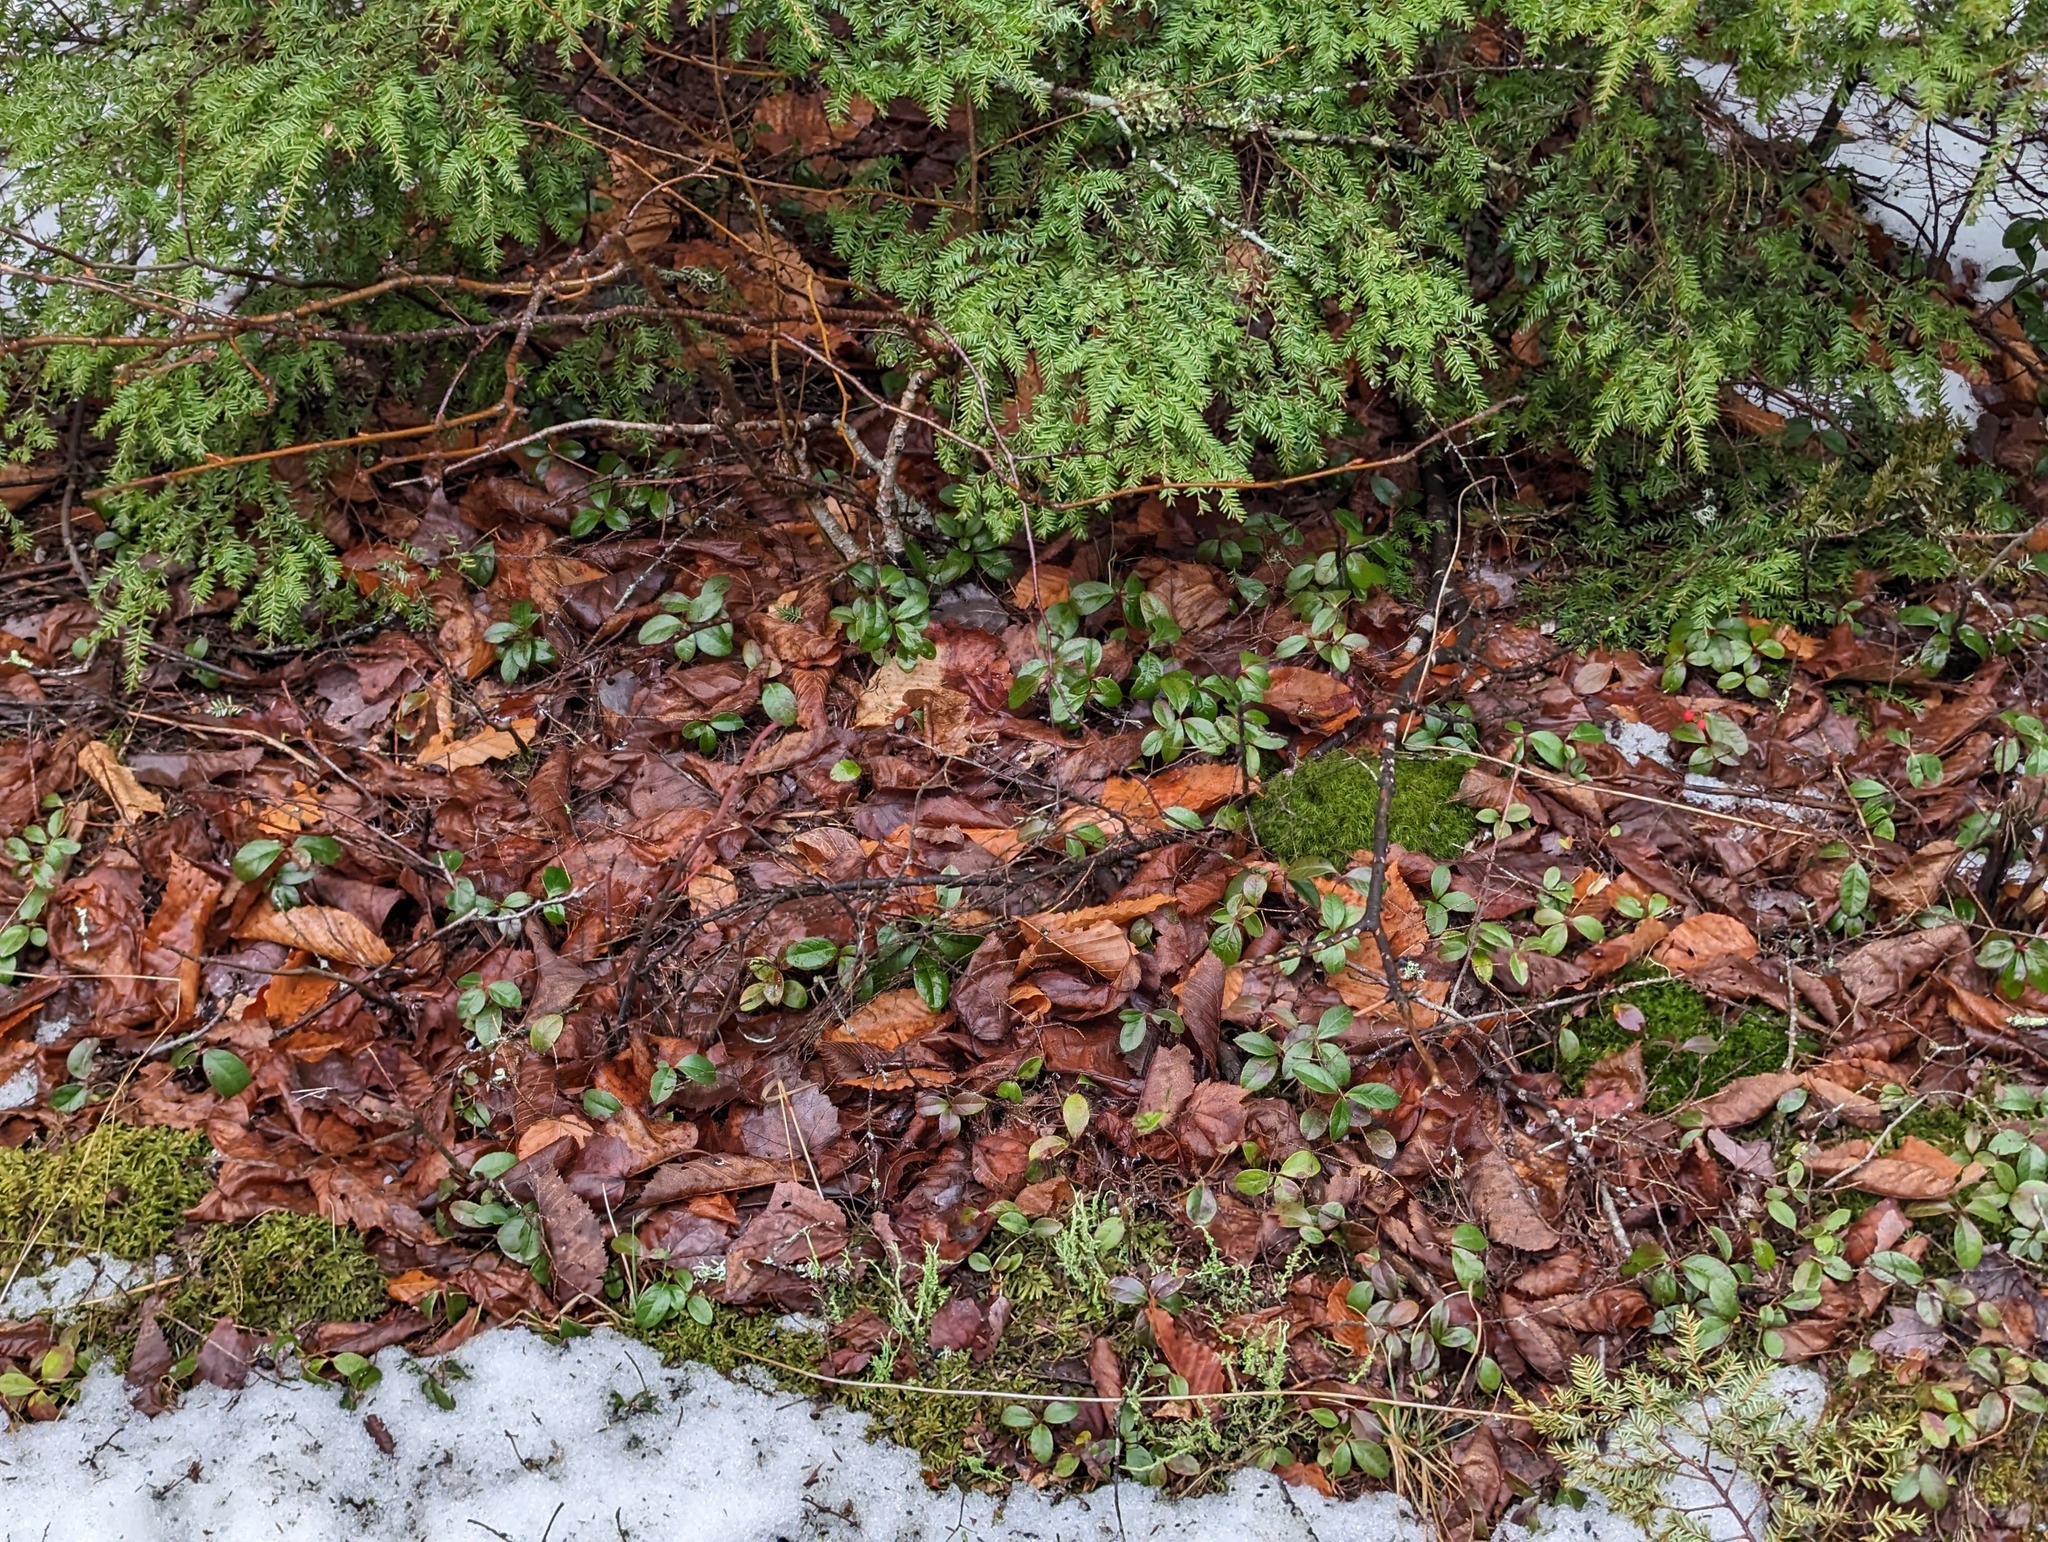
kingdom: Plantae
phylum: Tracheophyta
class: Magnoliopsida
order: Ericales
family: Ericaceae
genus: Gaultheria
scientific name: Gaultheria procumbens
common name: Checkerberry
